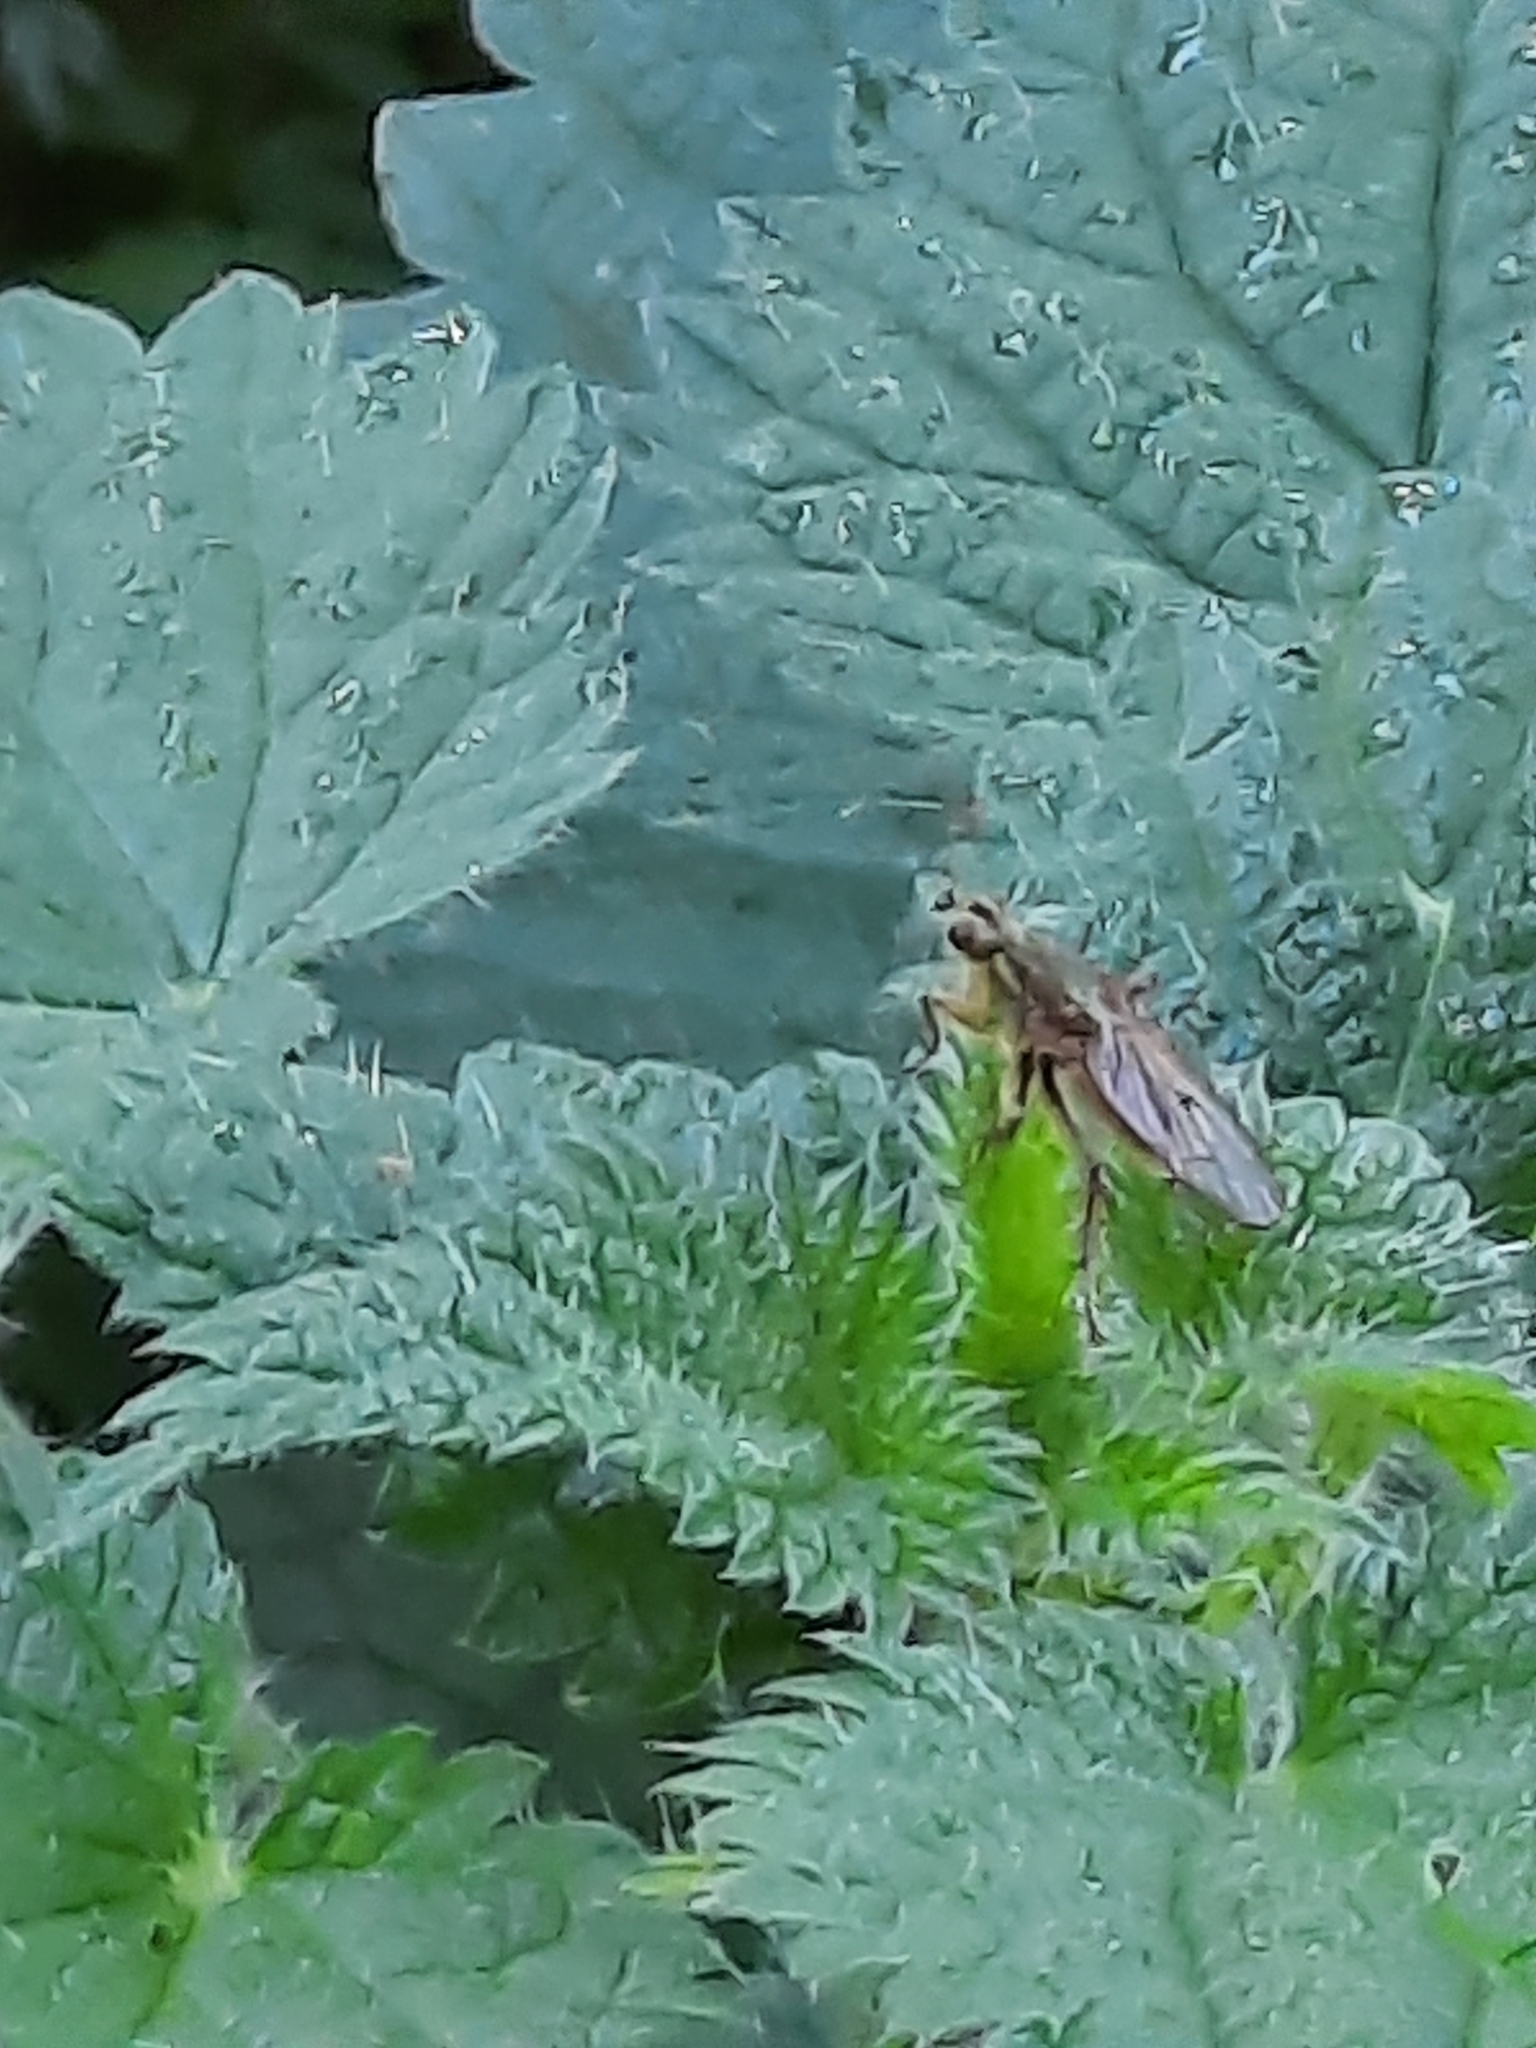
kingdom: Animalia
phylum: Arthropoda
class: Insecta
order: Diptera
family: Scathophagidae
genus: Scathophaga
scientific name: Scathophaga stercoraria
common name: Yellow dung fly
